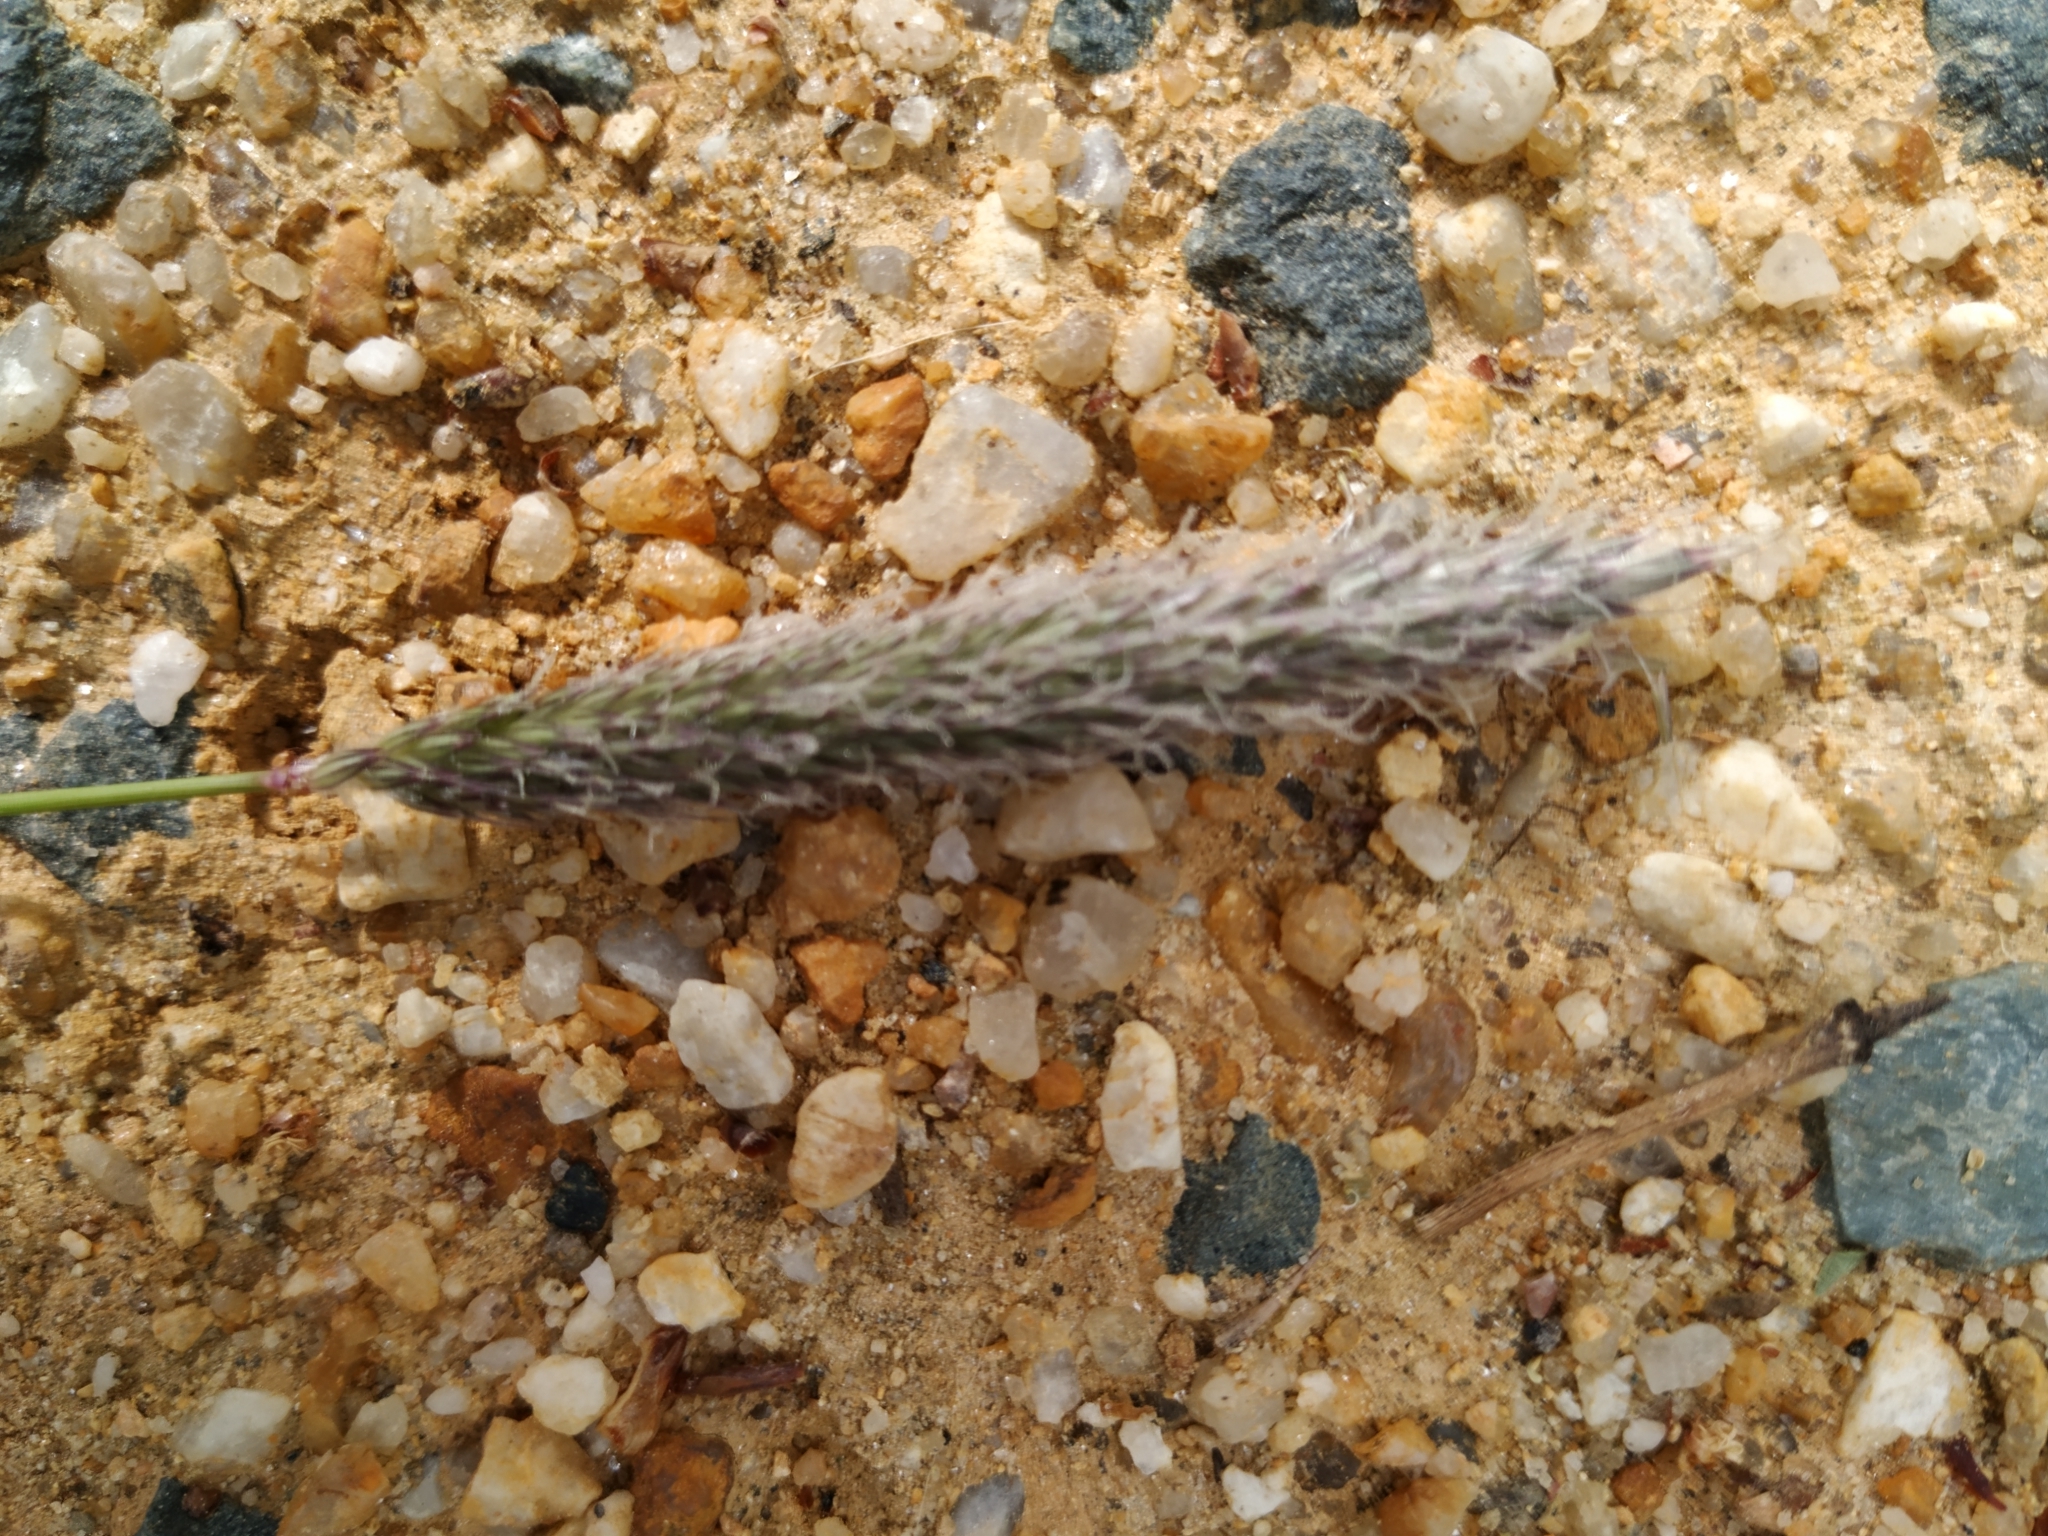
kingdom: Plantae
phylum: Tracheophyta
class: Liliopsida
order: Poales
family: Poaceae
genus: Alopecurus
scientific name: Alopecurus pratensis
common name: Meadow foxtail
